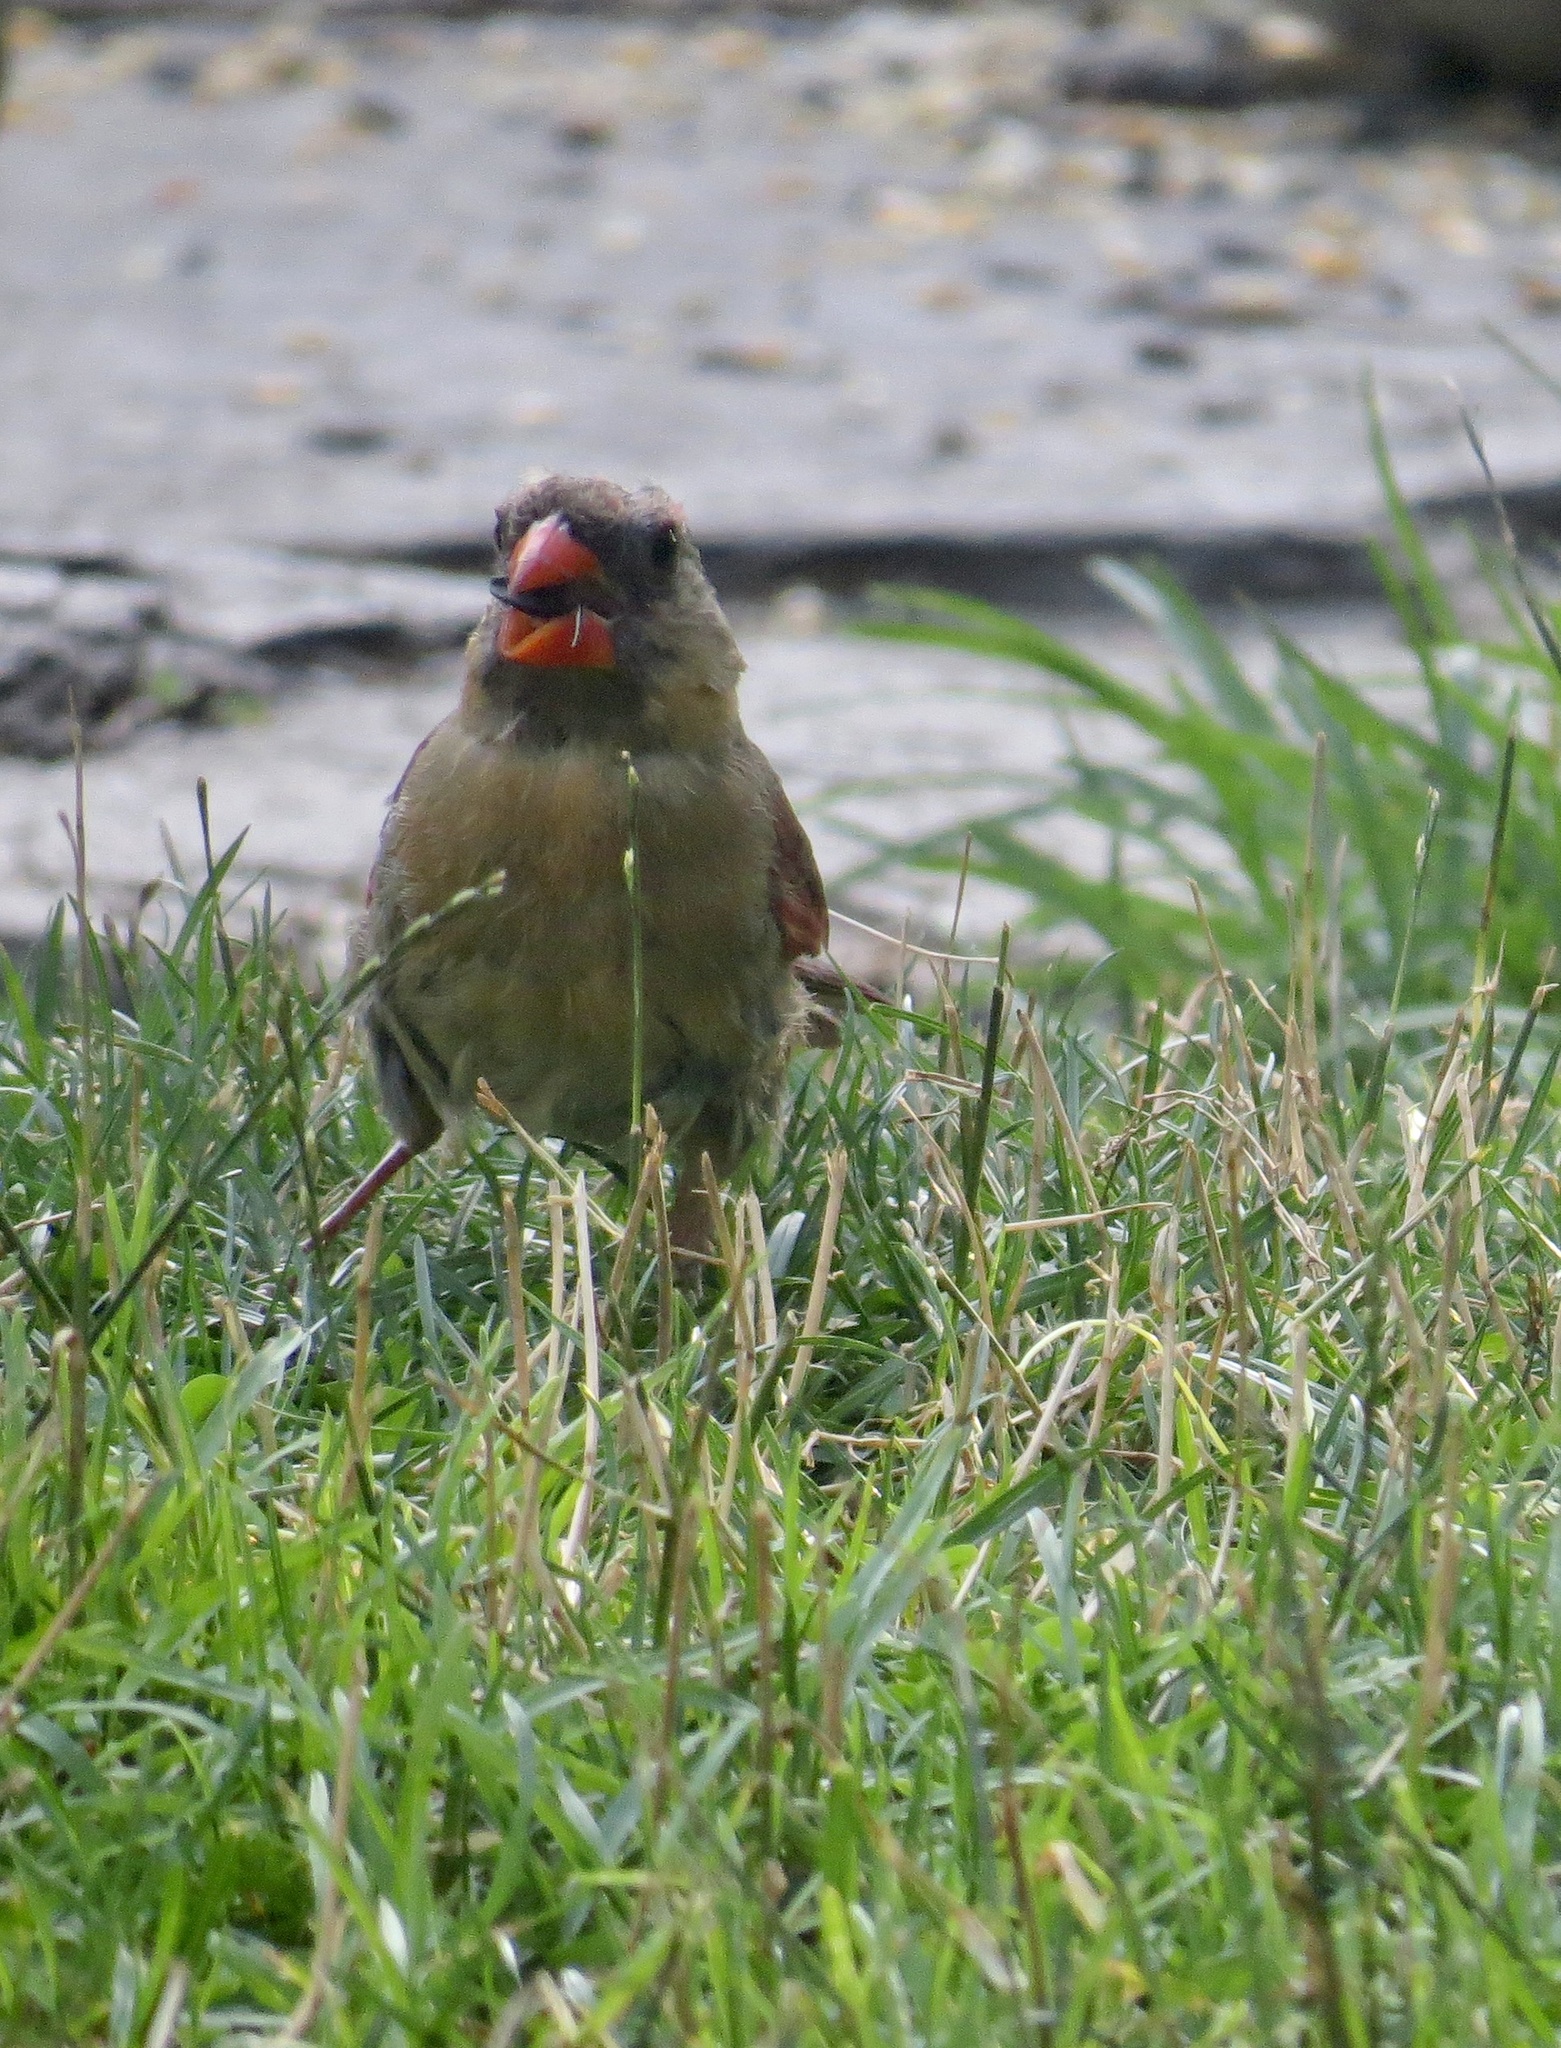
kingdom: Animalia
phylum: Chordata
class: Aves
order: Passeriformes
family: Cardinalidae
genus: Cardinalis
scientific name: Cardinalis cardinalis
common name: Northern cardinal
